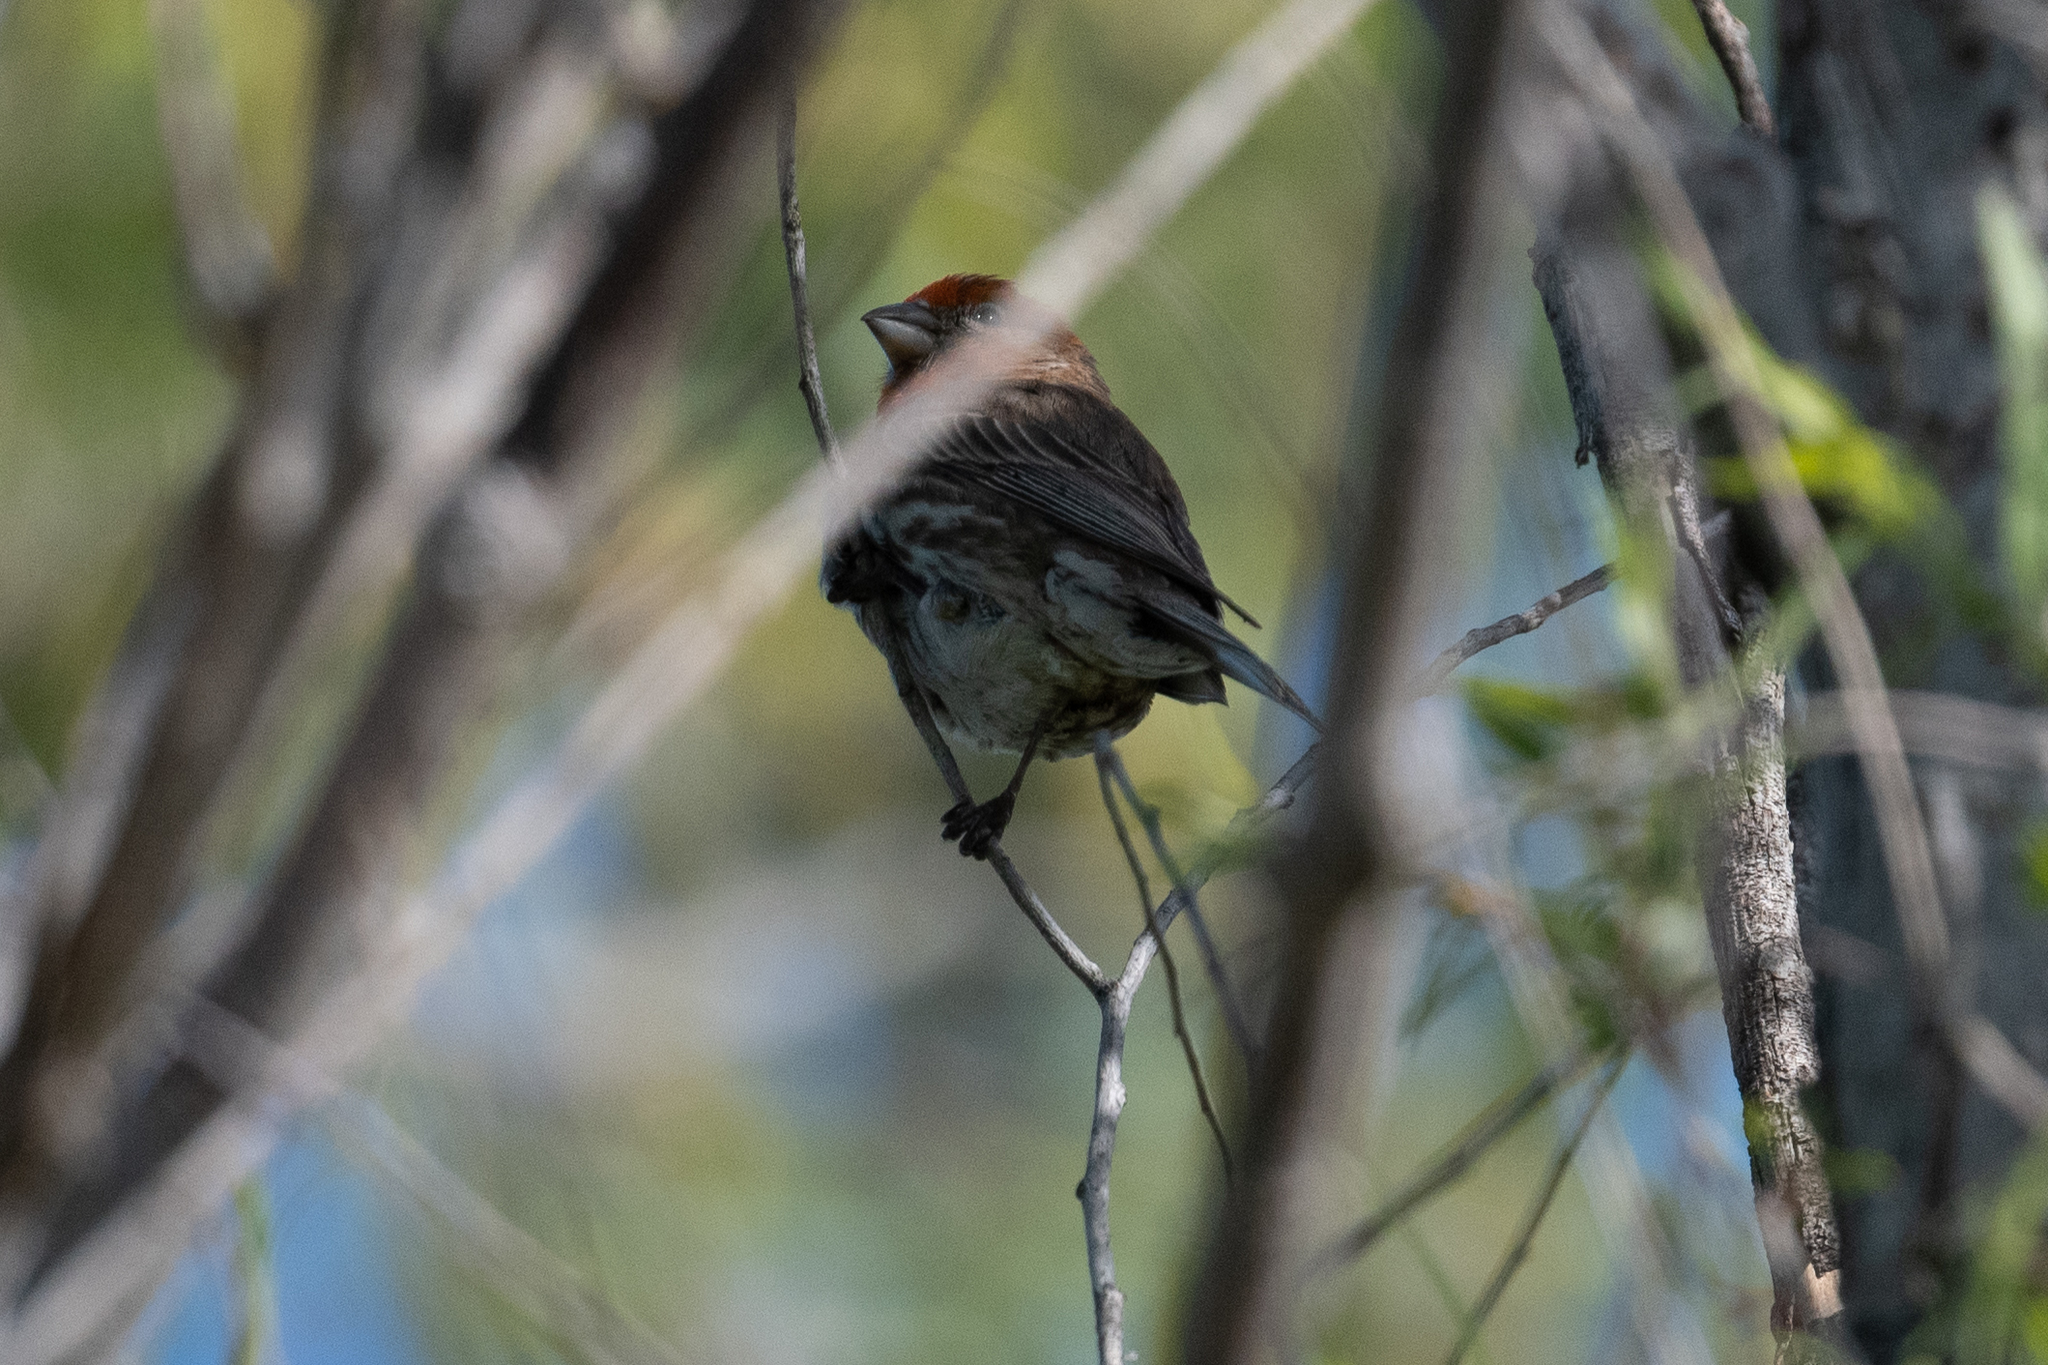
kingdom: Animalia
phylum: Chordata
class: Aves
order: Passeriformes
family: Fringillidae
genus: Haemorhous
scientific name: Haemorhous mexicanus
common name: House finch
